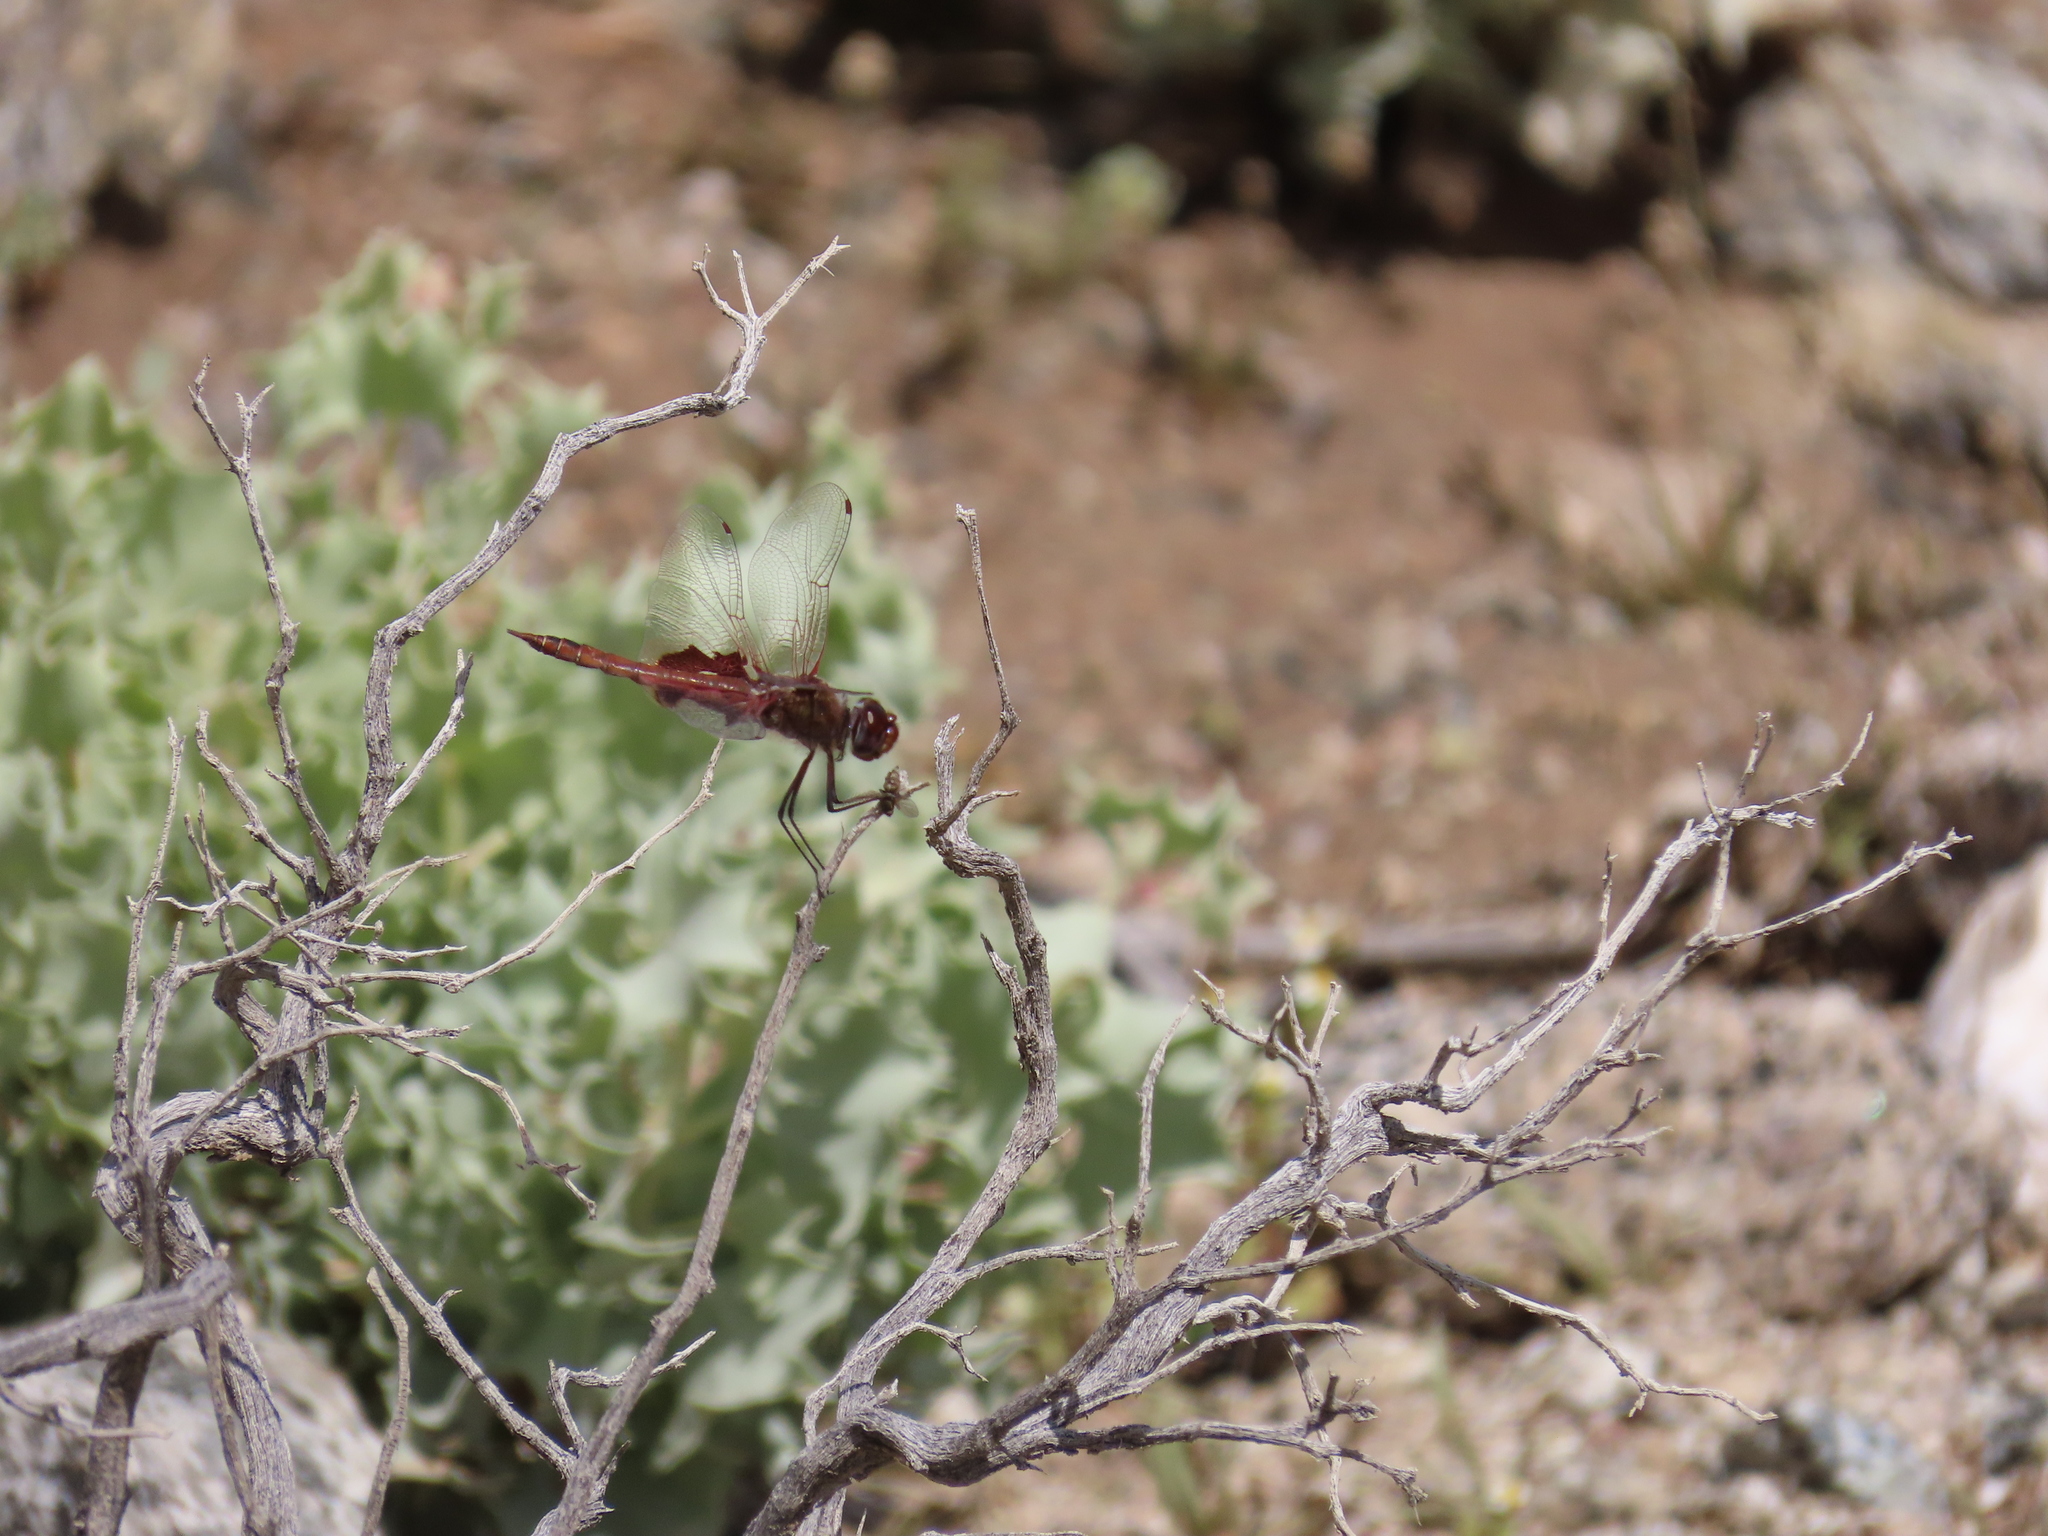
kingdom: Animalia
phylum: Arthropoda
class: Insecta
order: Odonata
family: Libellulidae
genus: Tramea
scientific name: Tramea onusta
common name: Red saddlebags
